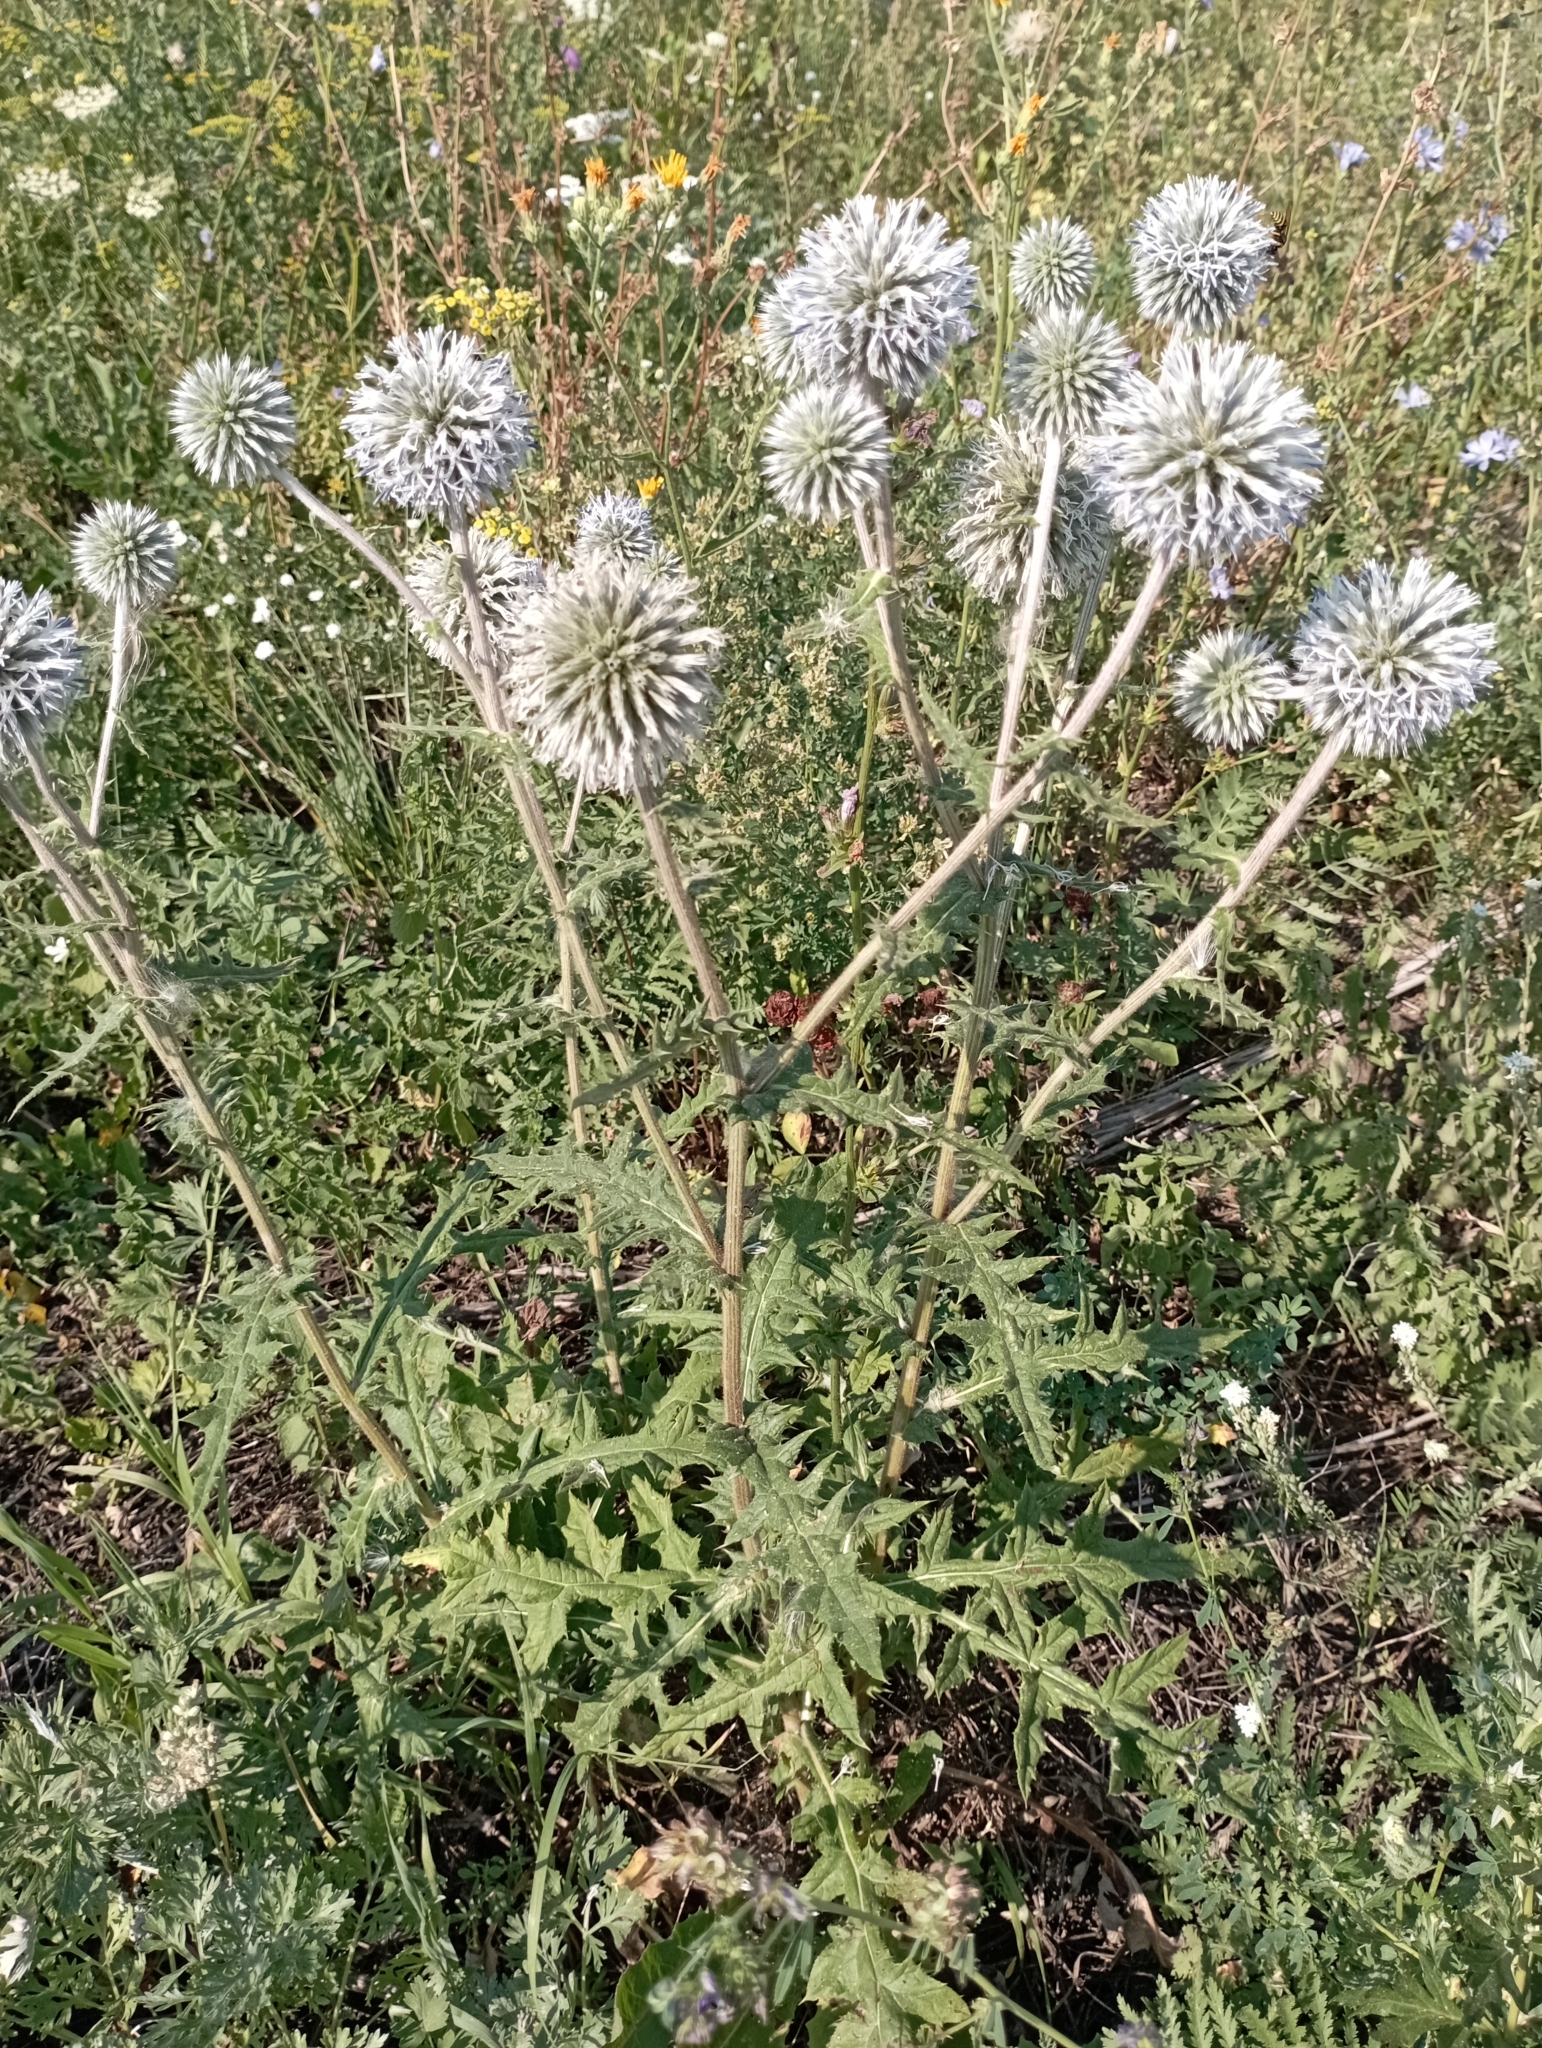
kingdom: Plantae
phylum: Tracheophyta
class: Magnoliopsida
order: Asterales
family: Asteraceae
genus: Echinops
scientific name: Echinops sphaerocephalus
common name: Glandular globe-thistle
